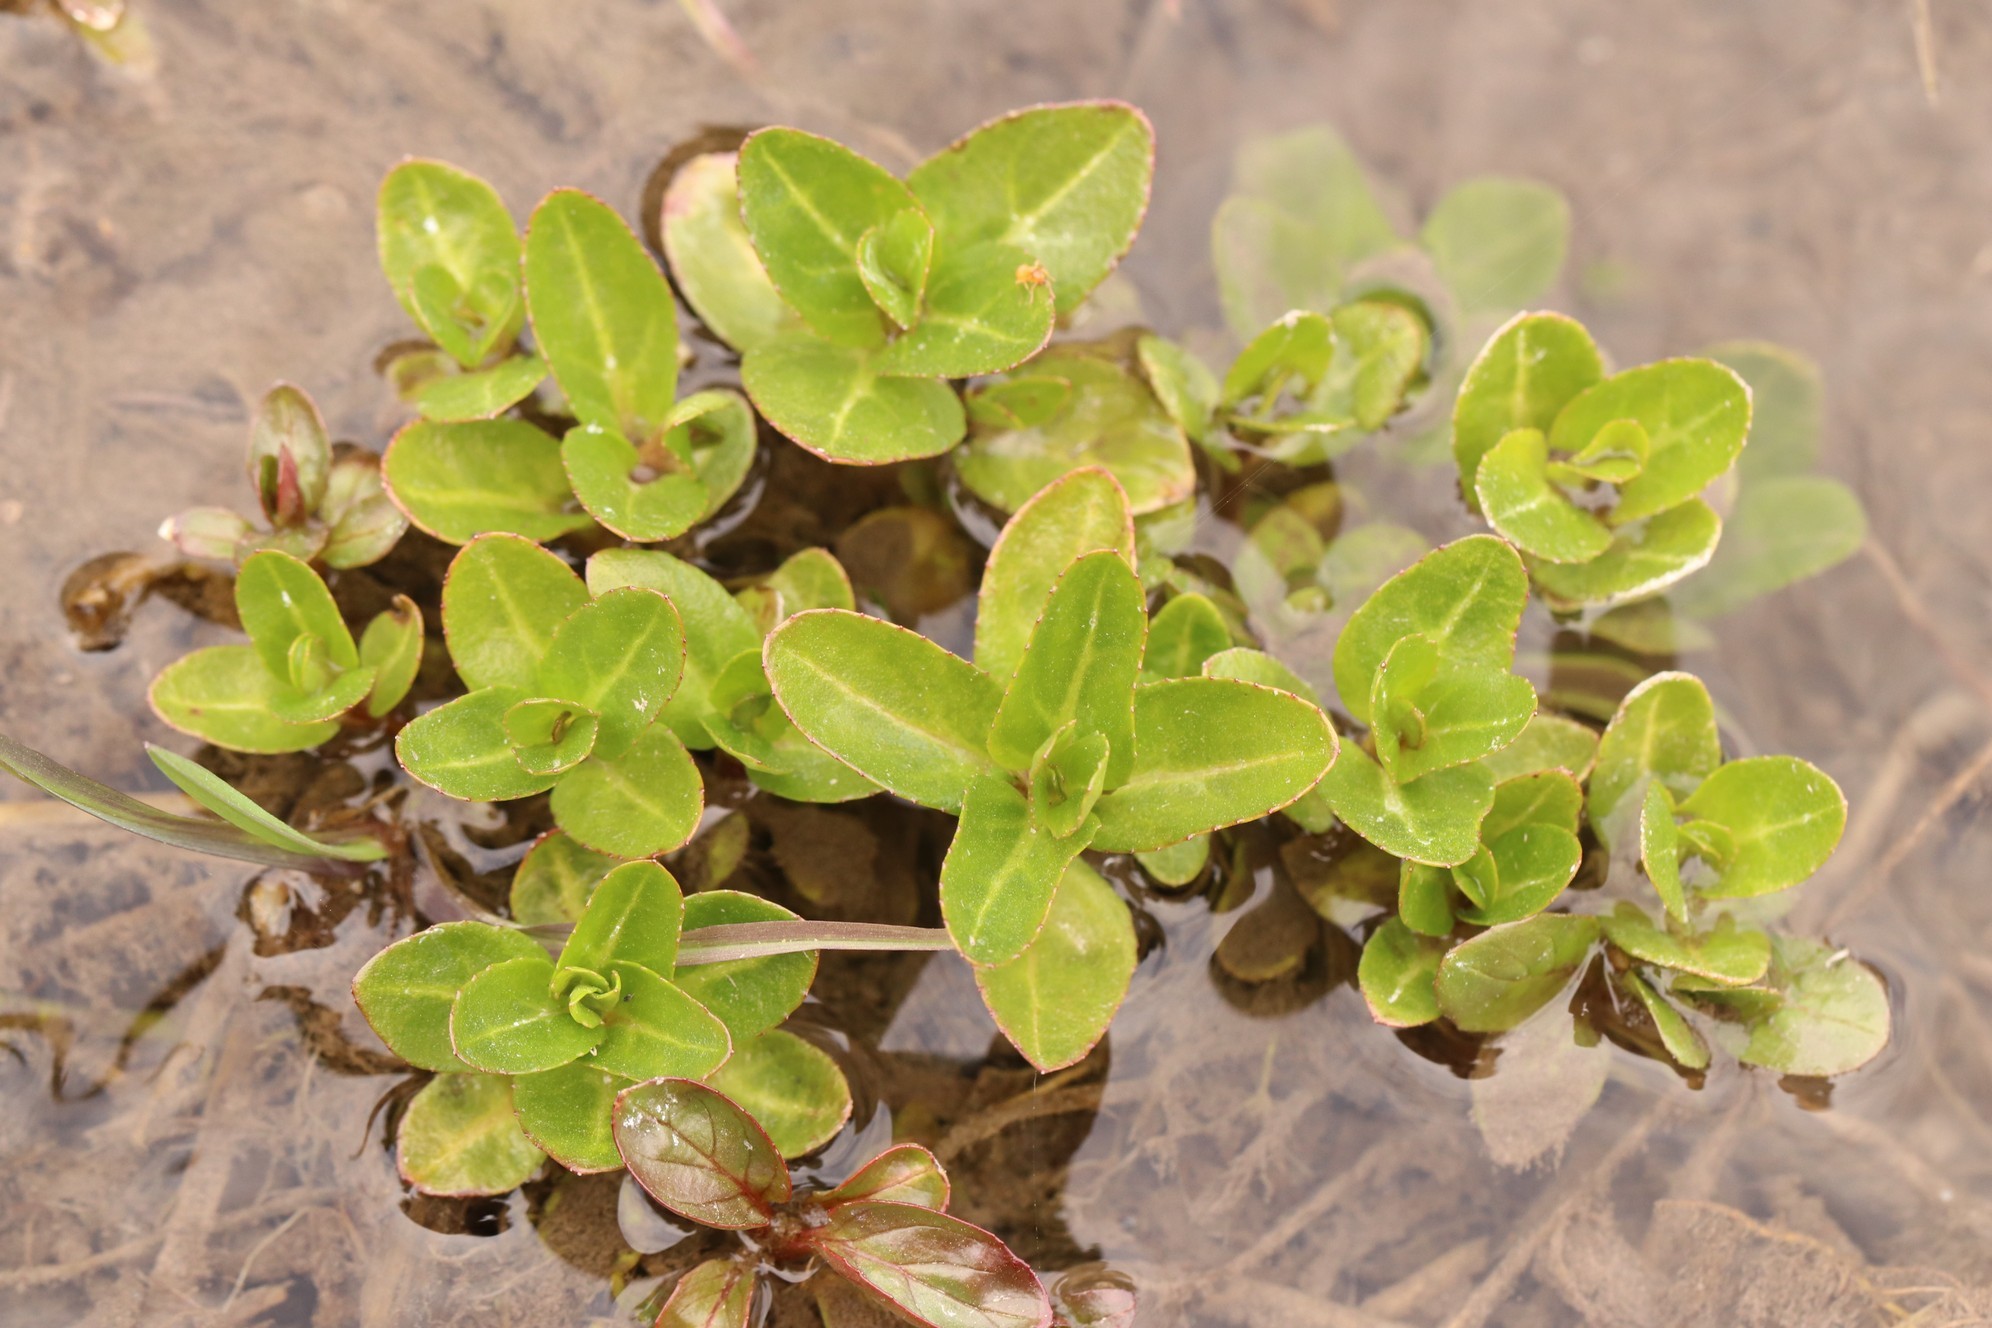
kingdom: Plantae
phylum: Tracheophyta
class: Magnoliopsida
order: Lamiales
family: Plantaginaceae
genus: Veronica
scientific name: Veronica beccabunga
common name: Brooklime
